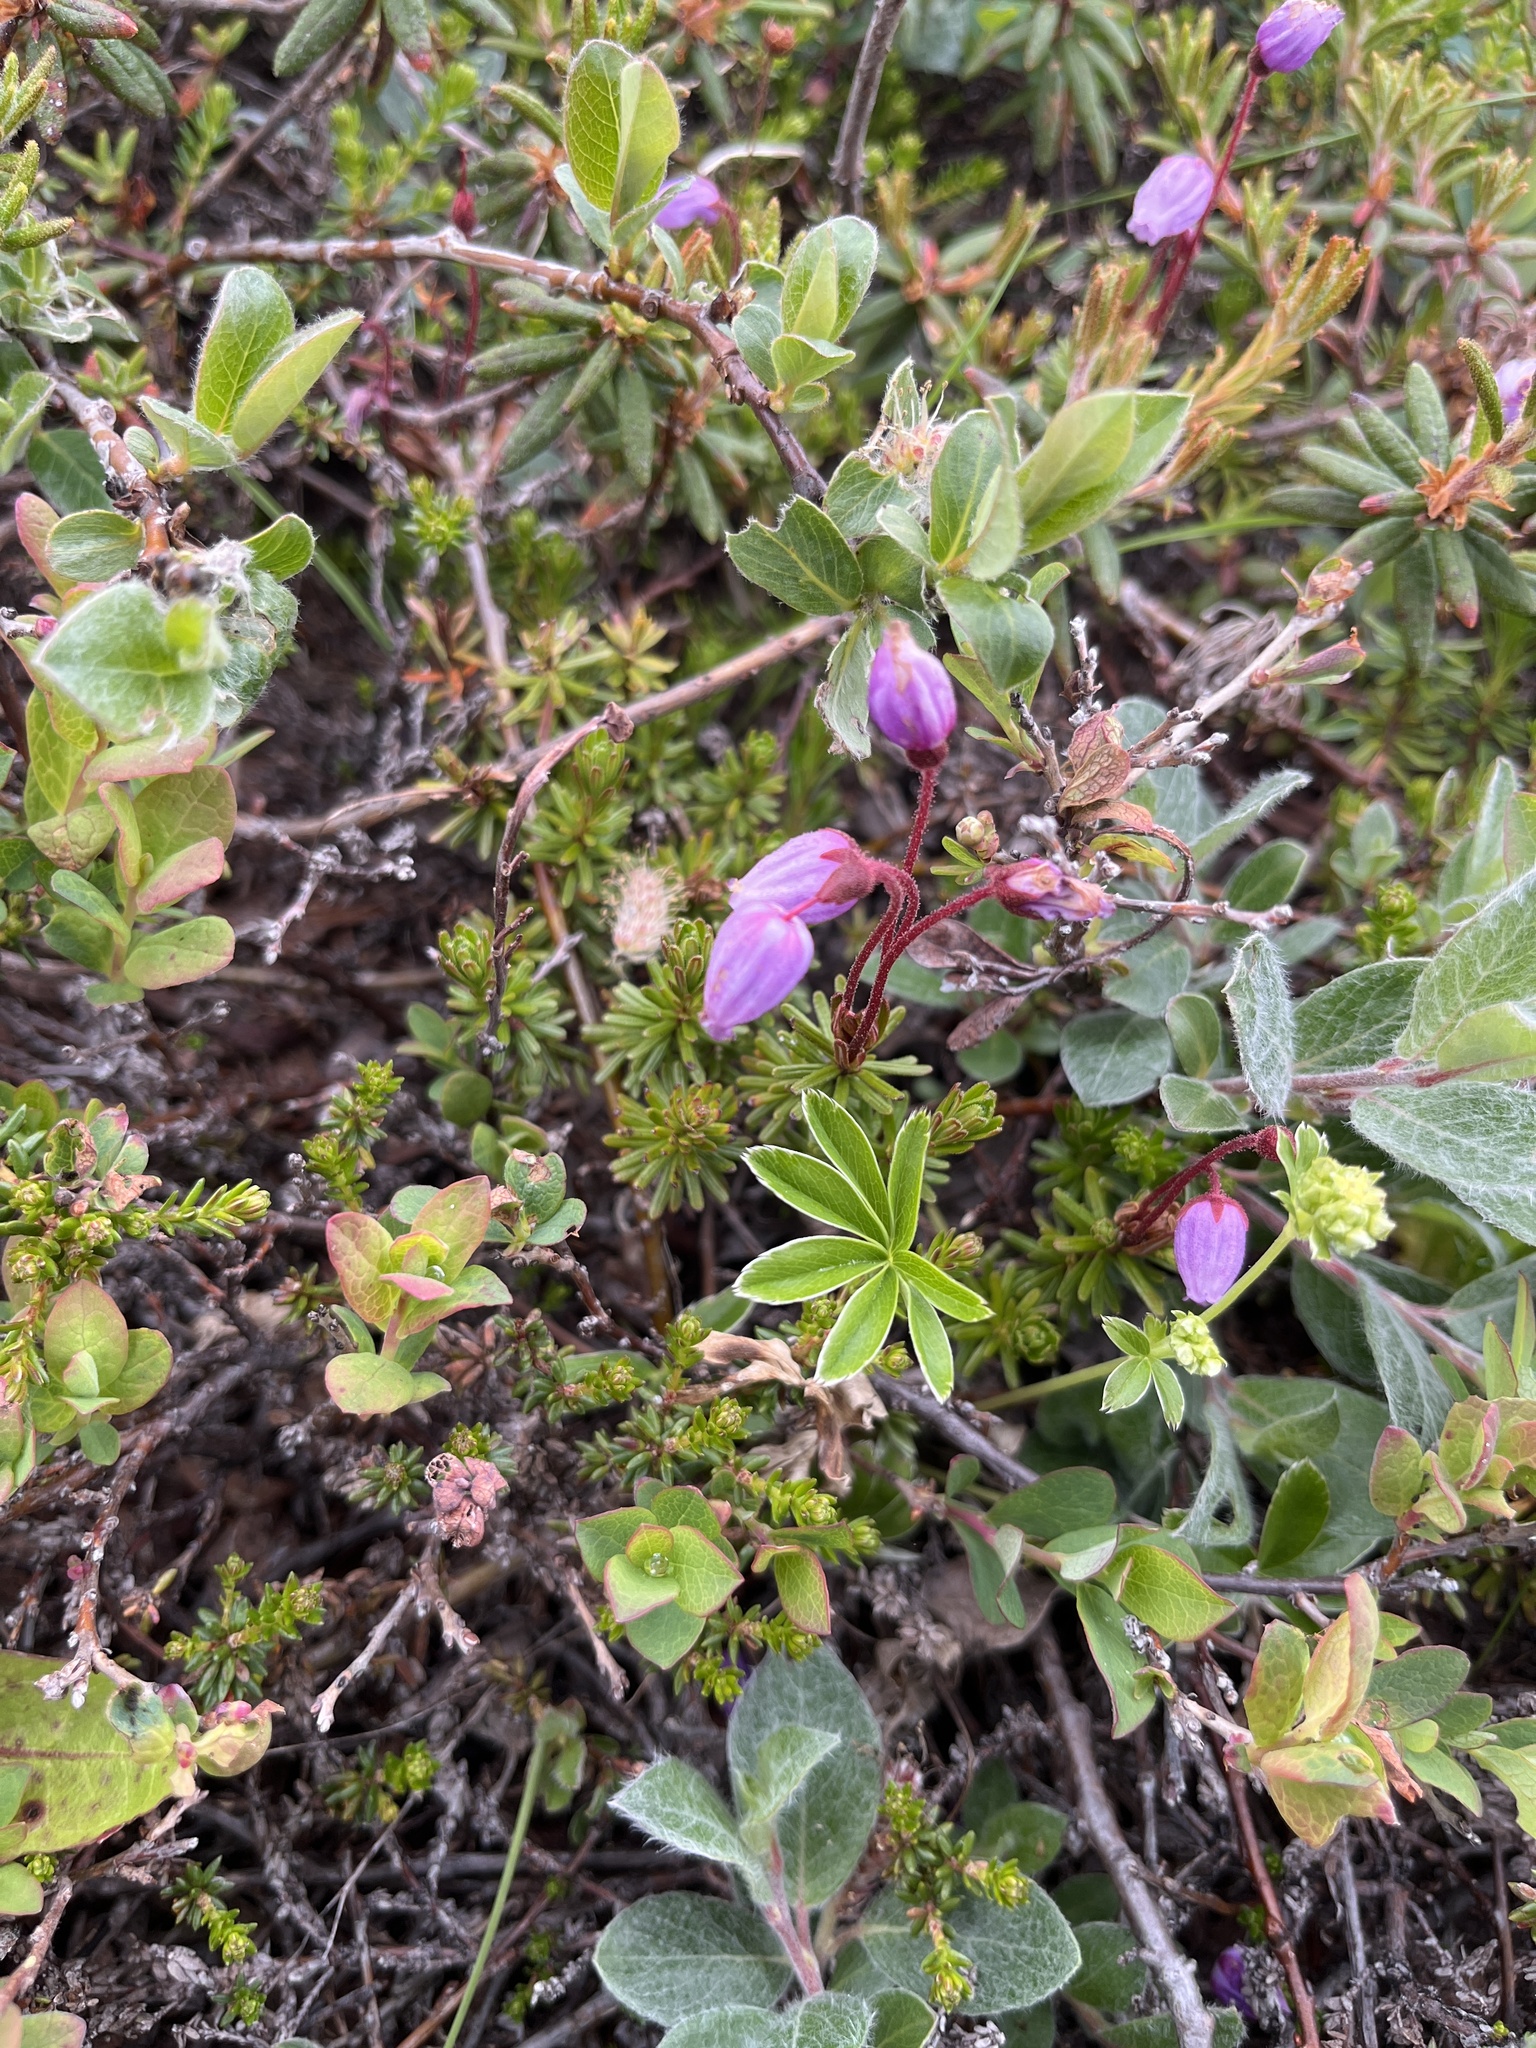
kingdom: Plantae
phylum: Tracheophyta
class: Magnoliopsida
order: Ericales
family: Ericaceae
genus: Phyllodoce
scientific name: Phyllodoce caerulea
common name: Blue heath
